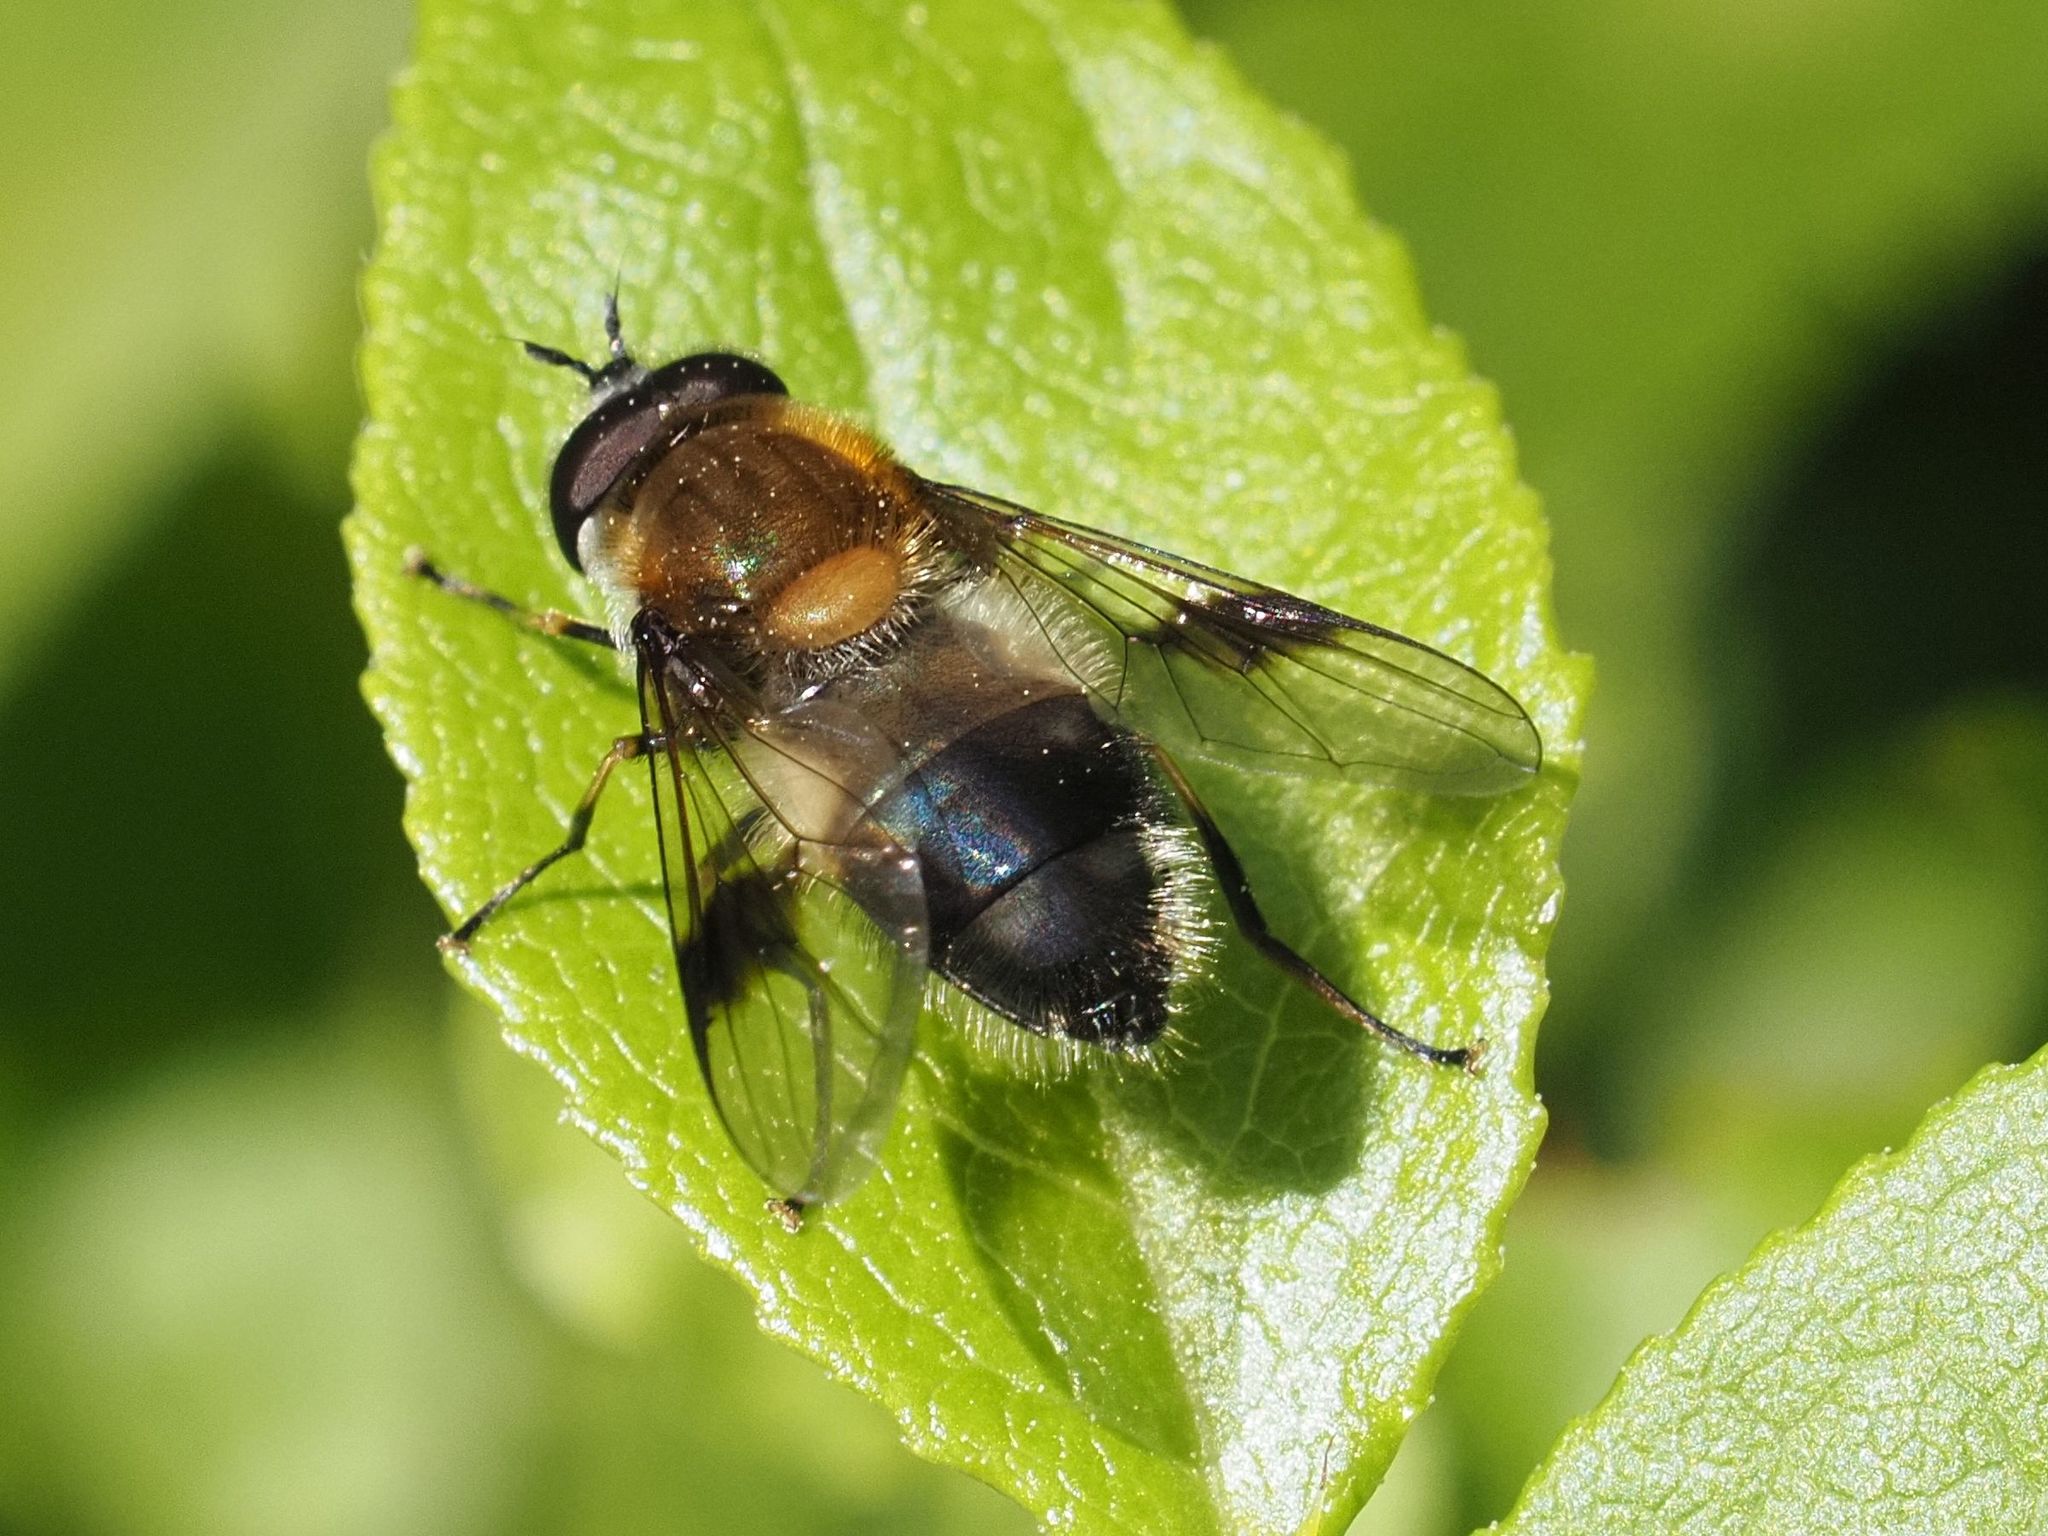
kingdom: Animalia
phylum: Arthropoda
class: Insecta
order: Diptera
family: Syrphidae
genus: Leucozona
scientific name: Leucozona lucorum
